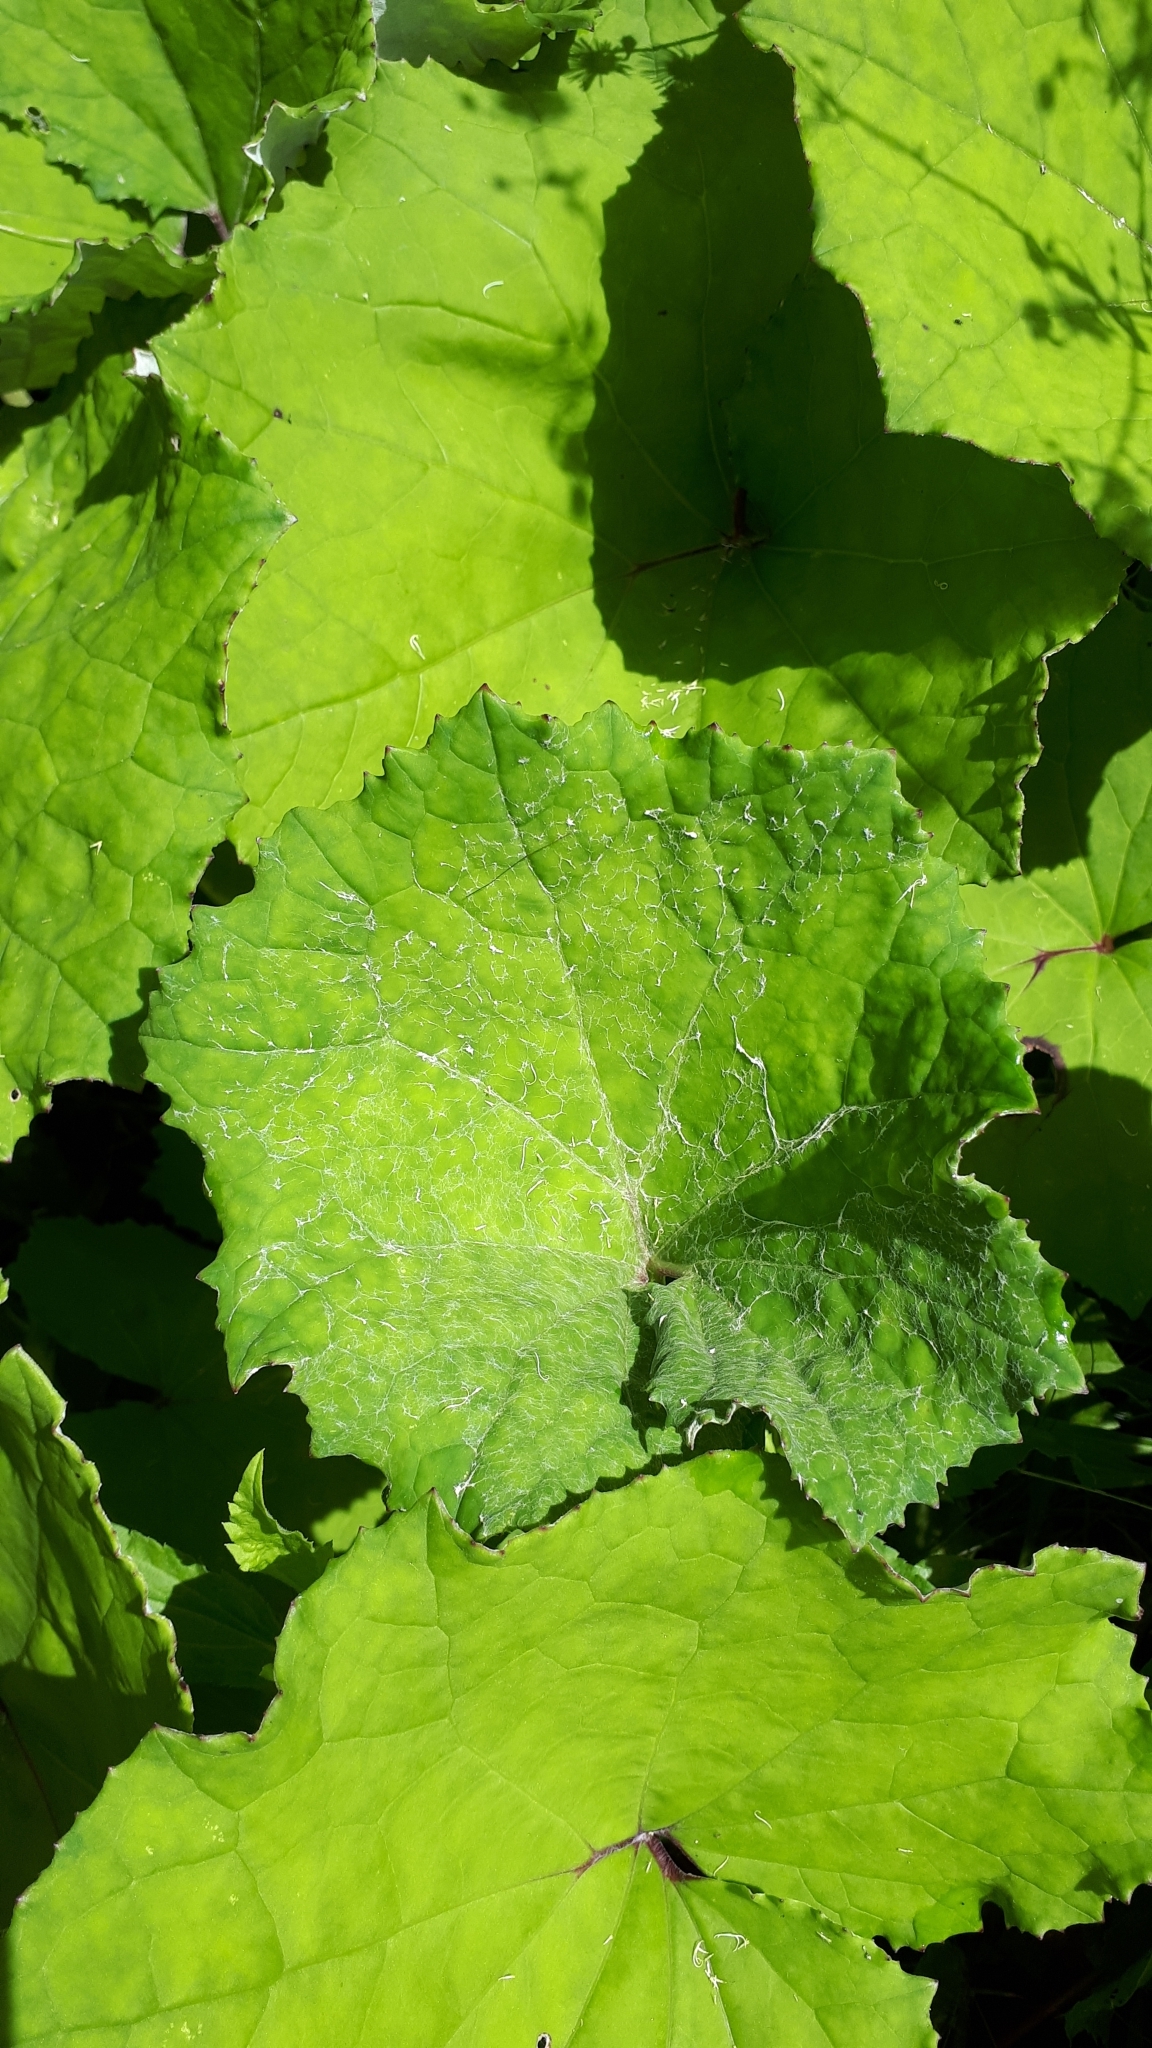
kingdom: Plantae
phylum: Tracheophyta
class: Magnoliopsida
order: Asterales
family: Asteraceae
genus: Tussilago
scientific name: Tussilago farfara
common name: Coltsfoot
